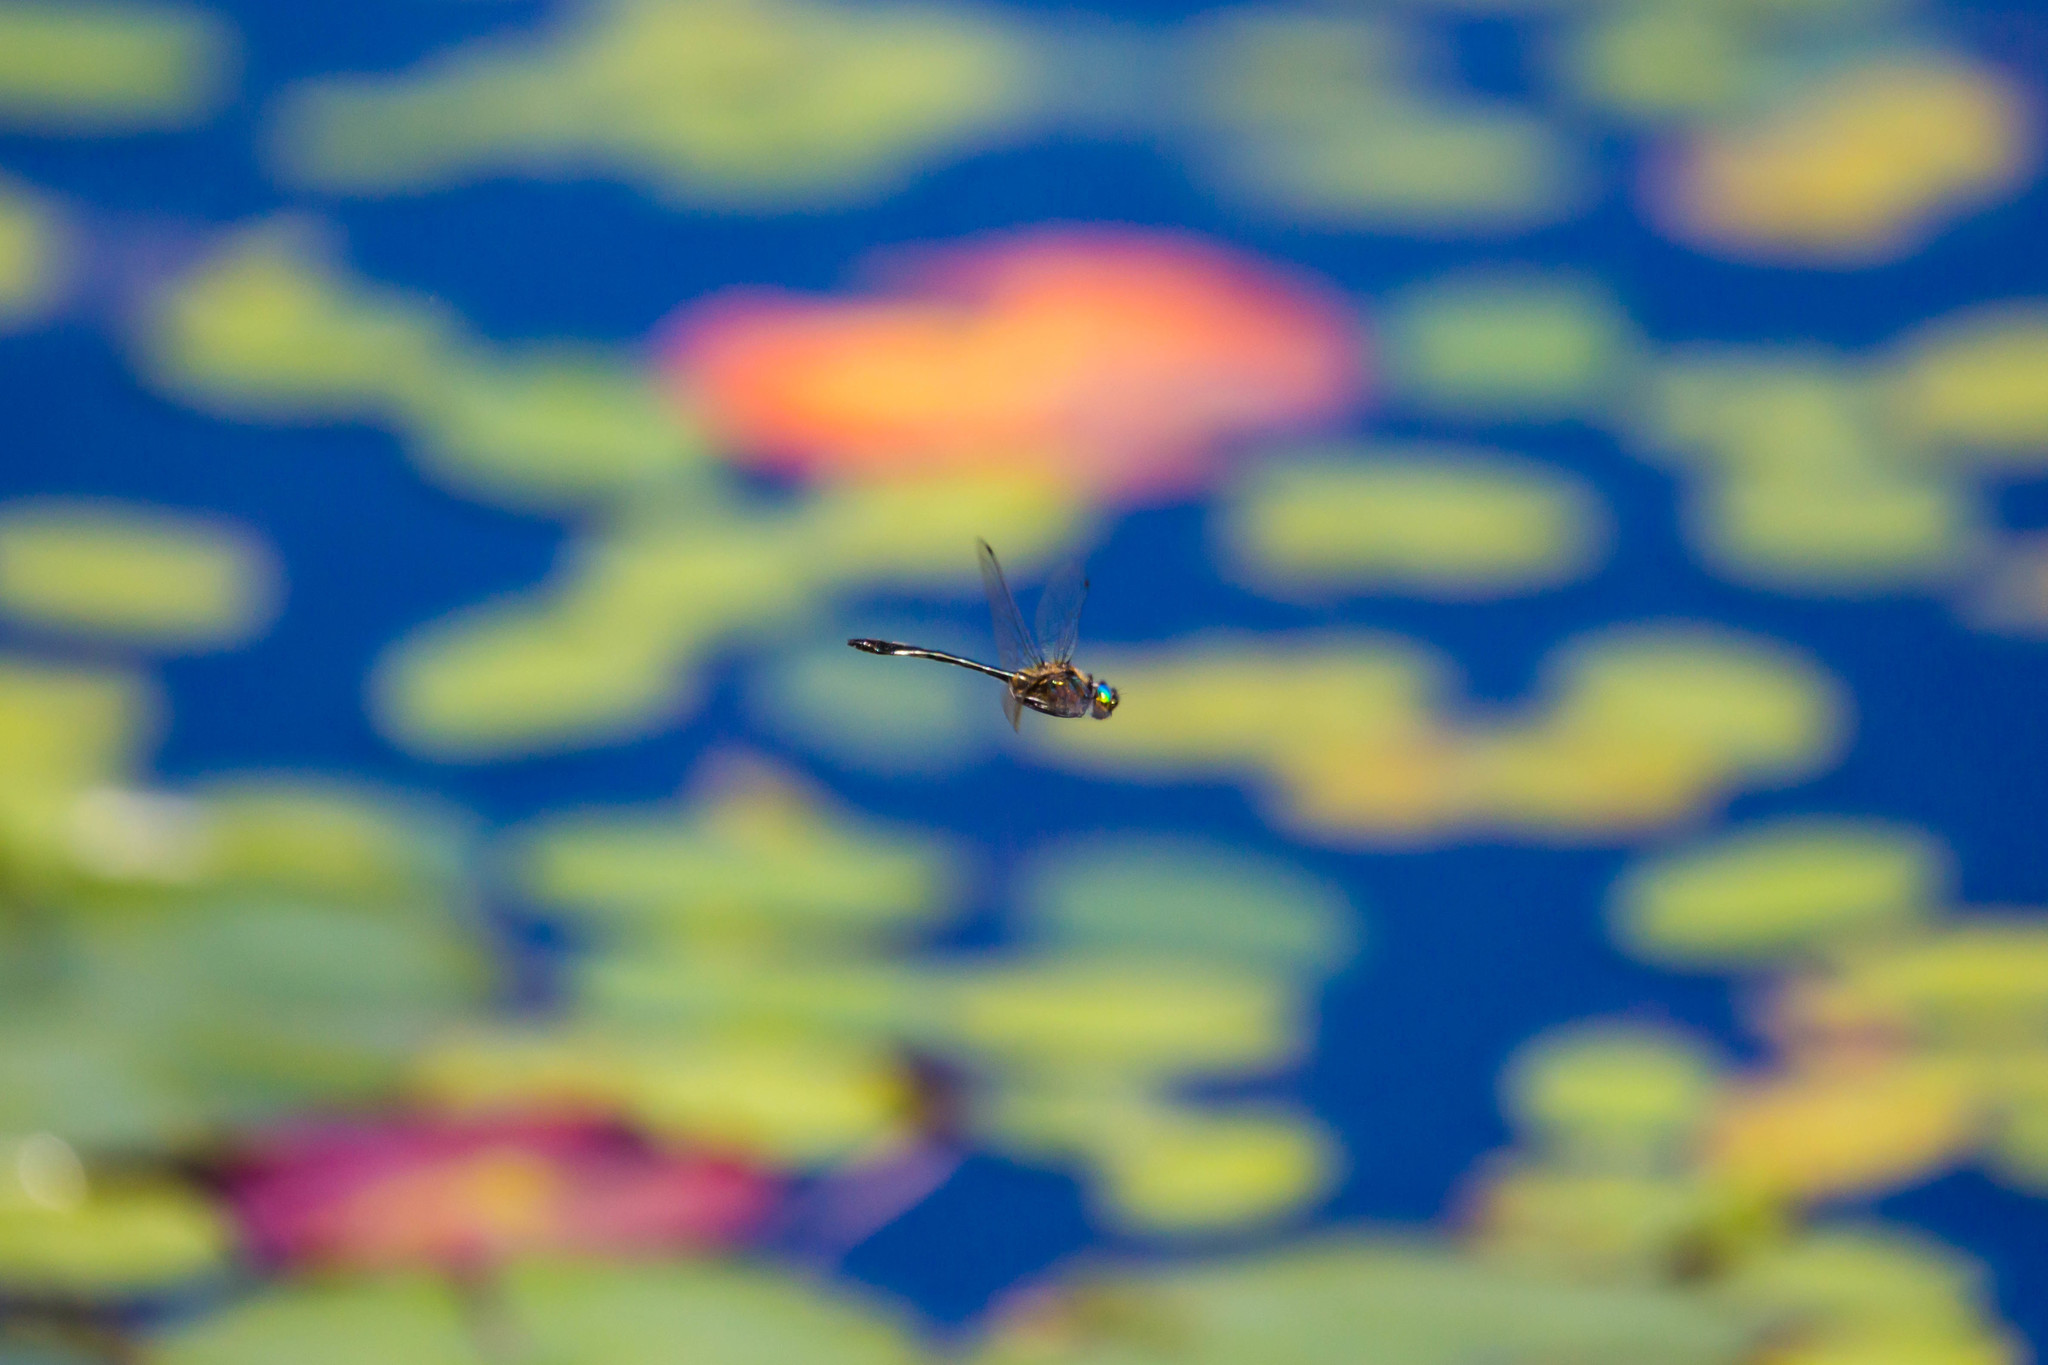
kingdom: Animalia
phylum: Arthropoda
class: Insecta
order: Odonata
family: Corduliidae
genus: Dorocordulia
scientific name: Dorocordulia libera
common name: Racket-tailed emerald
